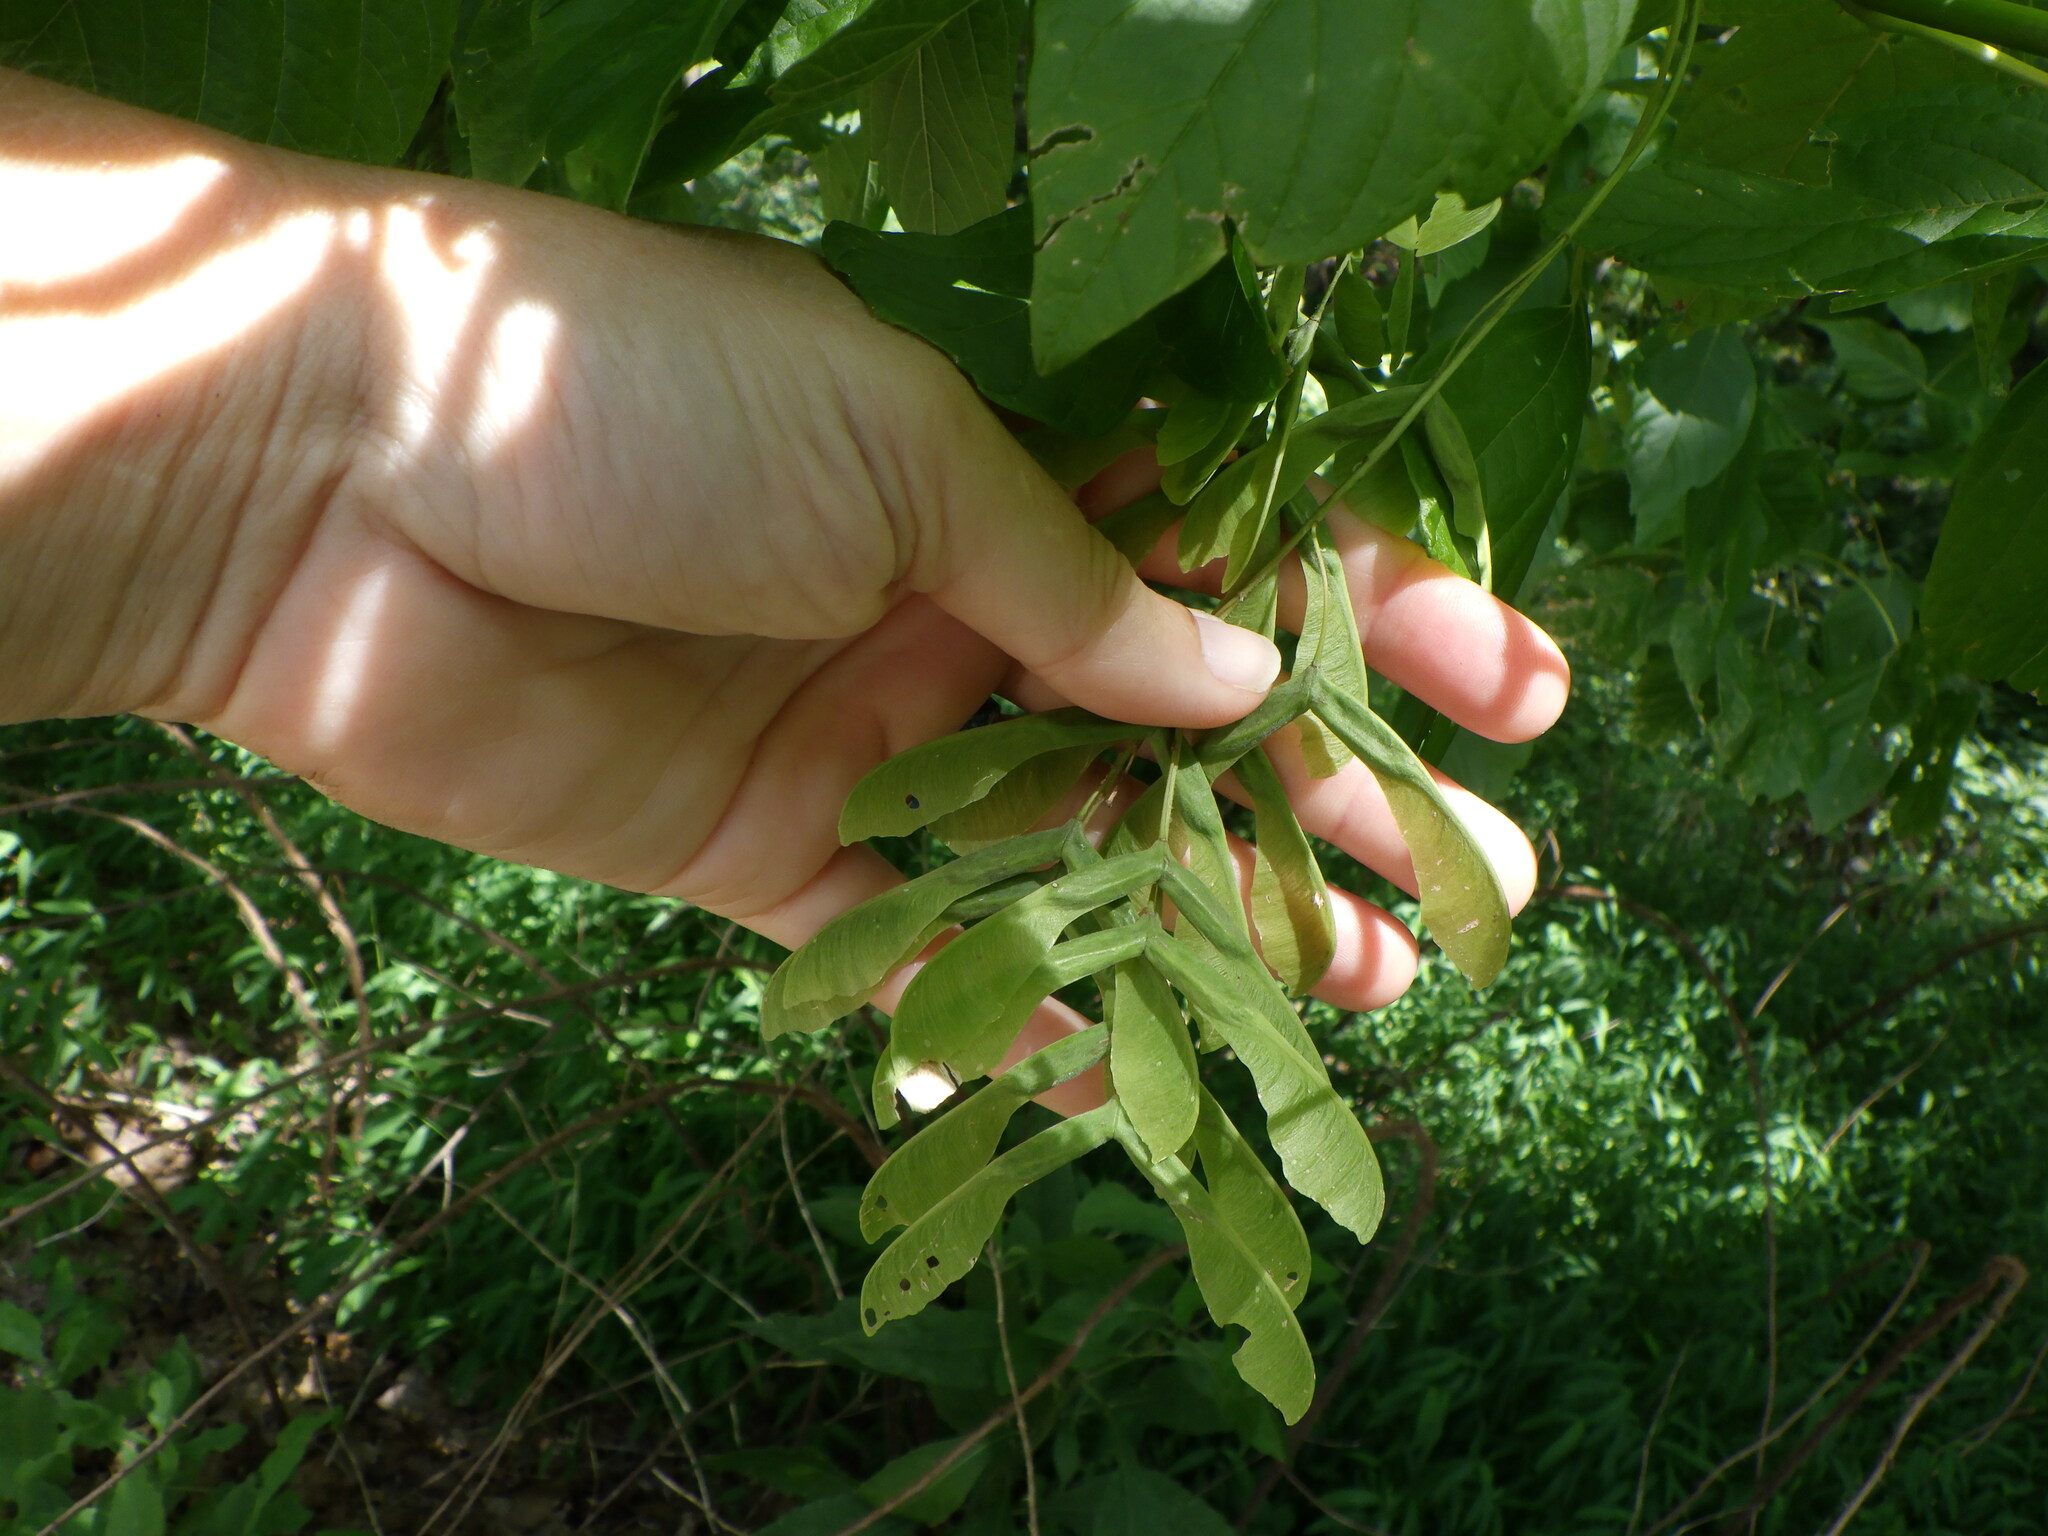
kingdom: Plantae
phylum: Tracheophyta
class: Magnoliopsida
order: Sapindales
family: Sapindaceae
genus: Acer
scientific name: Acer negundo
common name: Ashleaf maple
